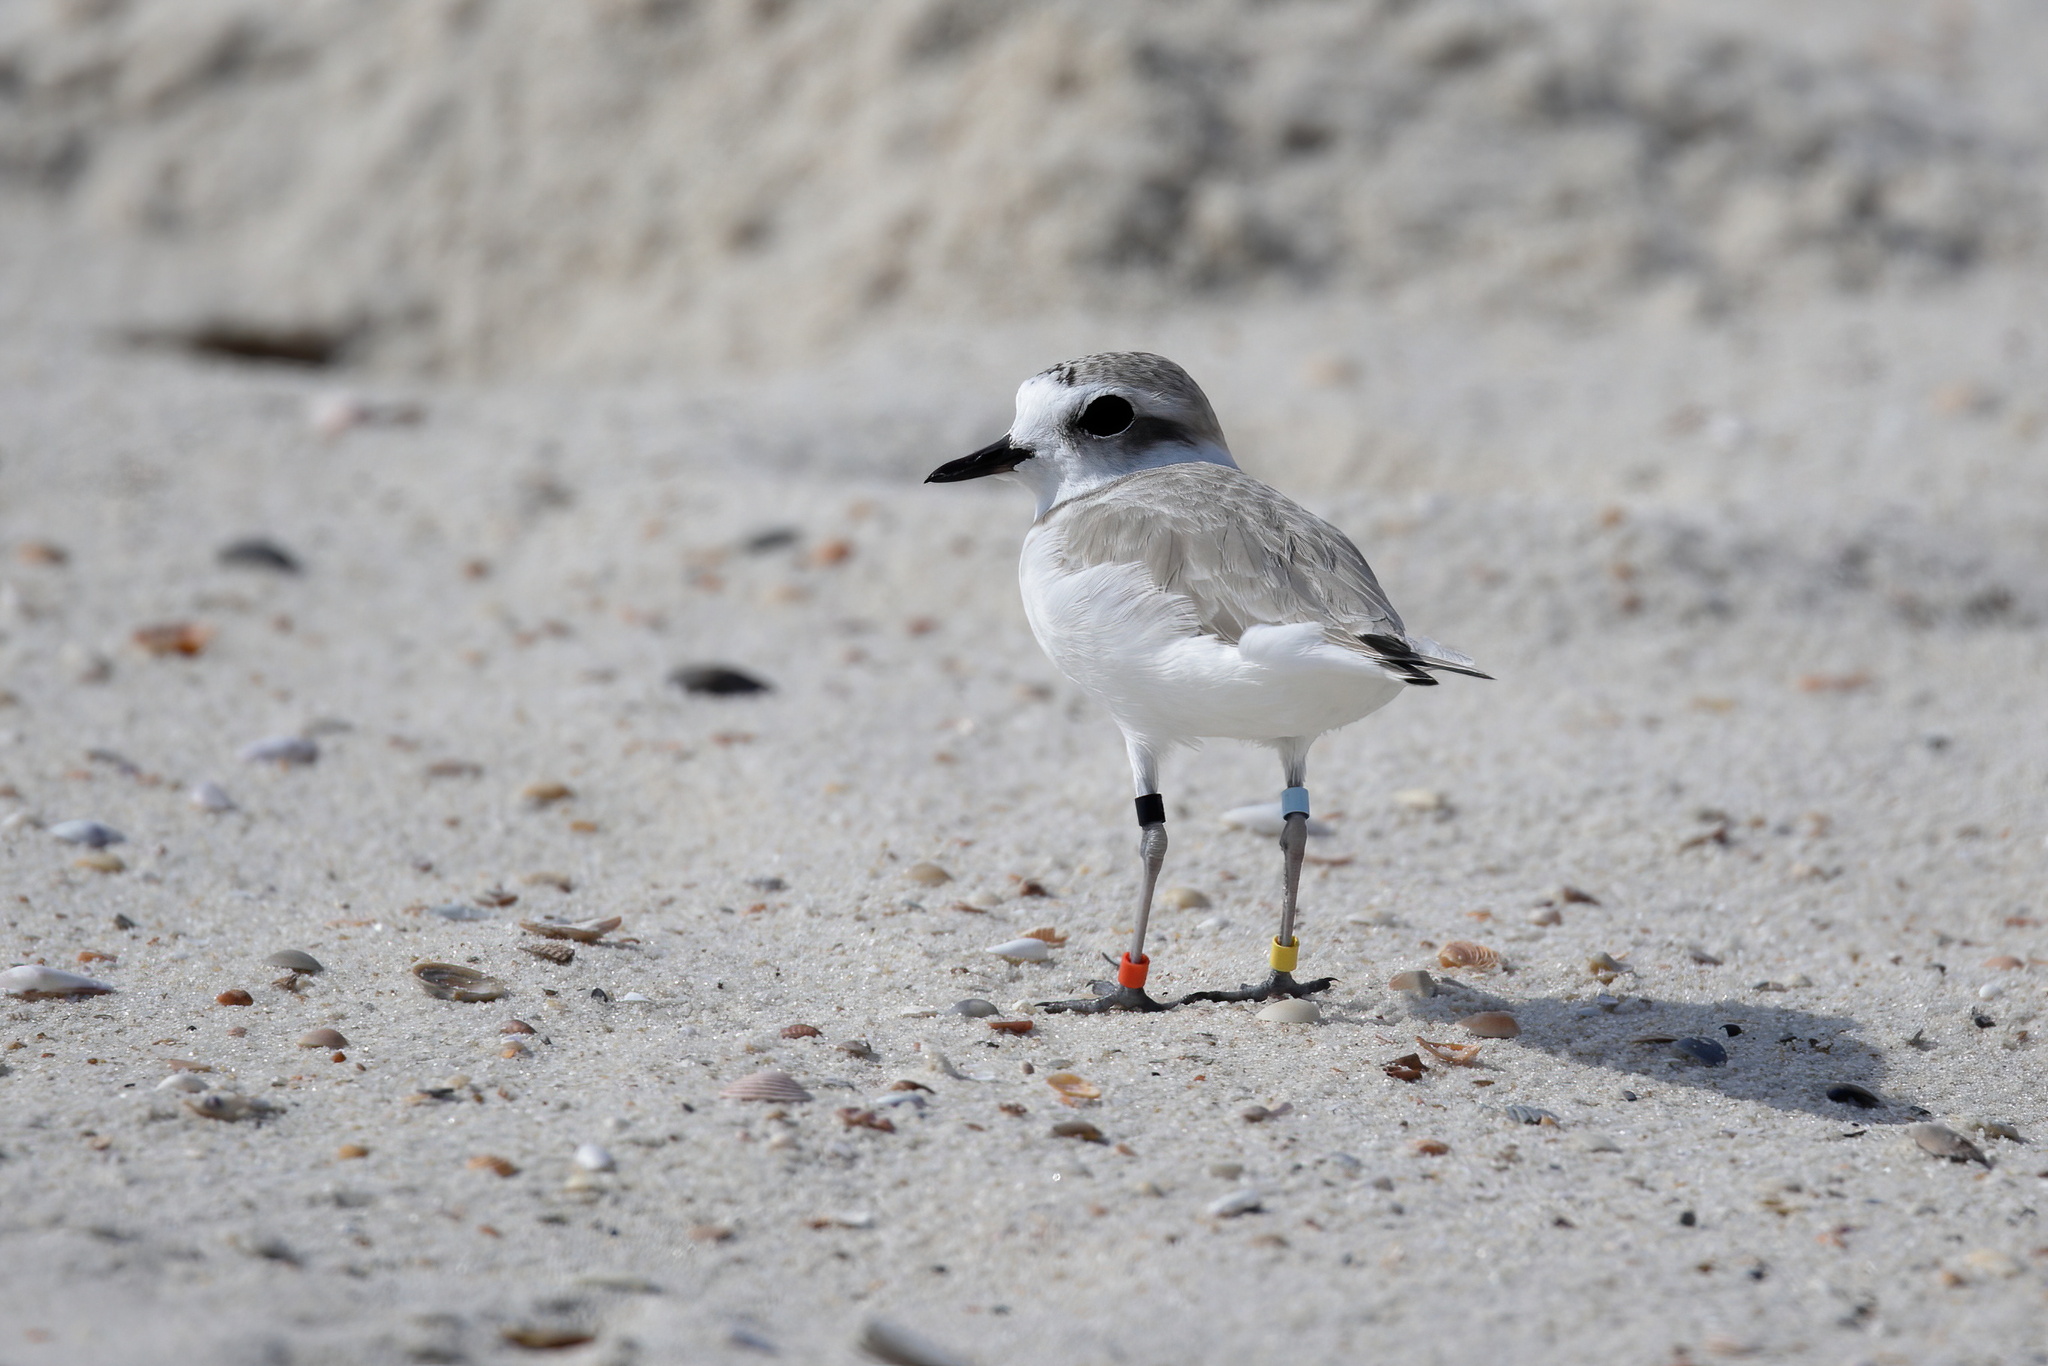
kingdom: Animalia
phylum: Chordata
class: Aves
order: Charadriiformes
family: Charadriidae
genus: Anarhynchus
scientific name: Anarhynchus
